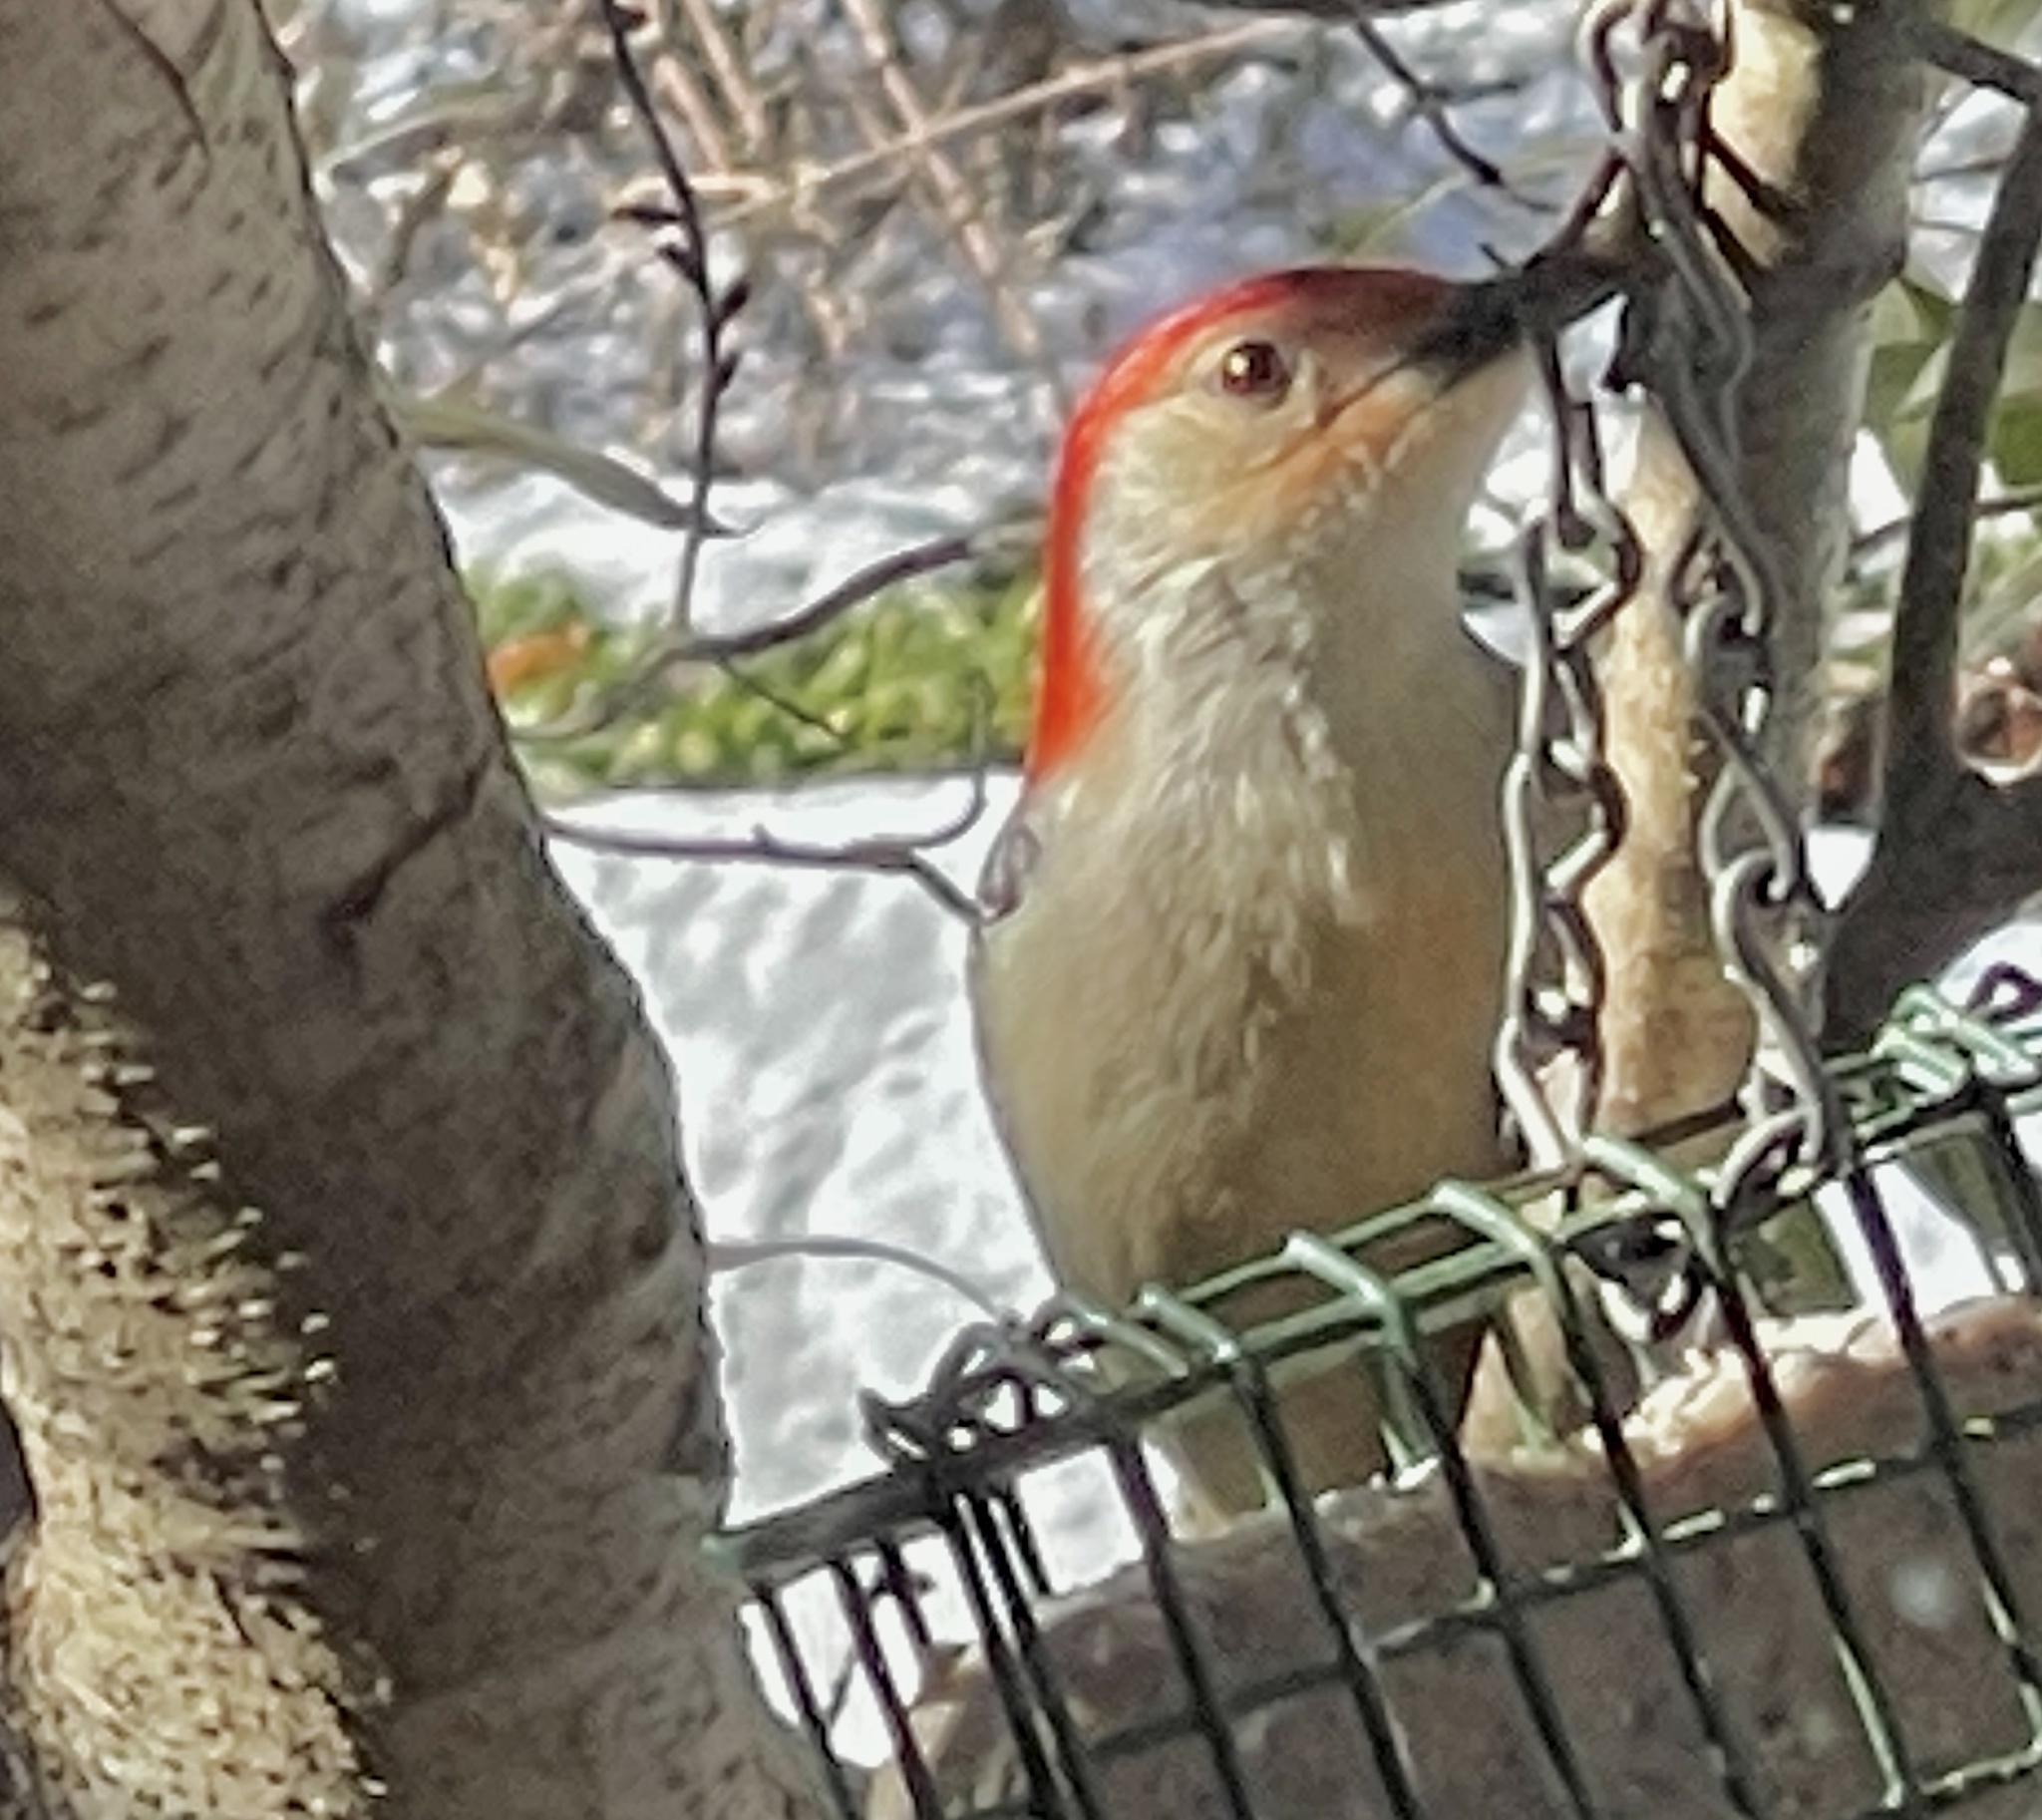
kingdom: Animalia
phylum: Chordata
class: Aves
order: Piciformes
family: Picidae
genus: Melanerpes
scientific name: Melanerpes carolinus
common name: Red-bellied woodpecker
